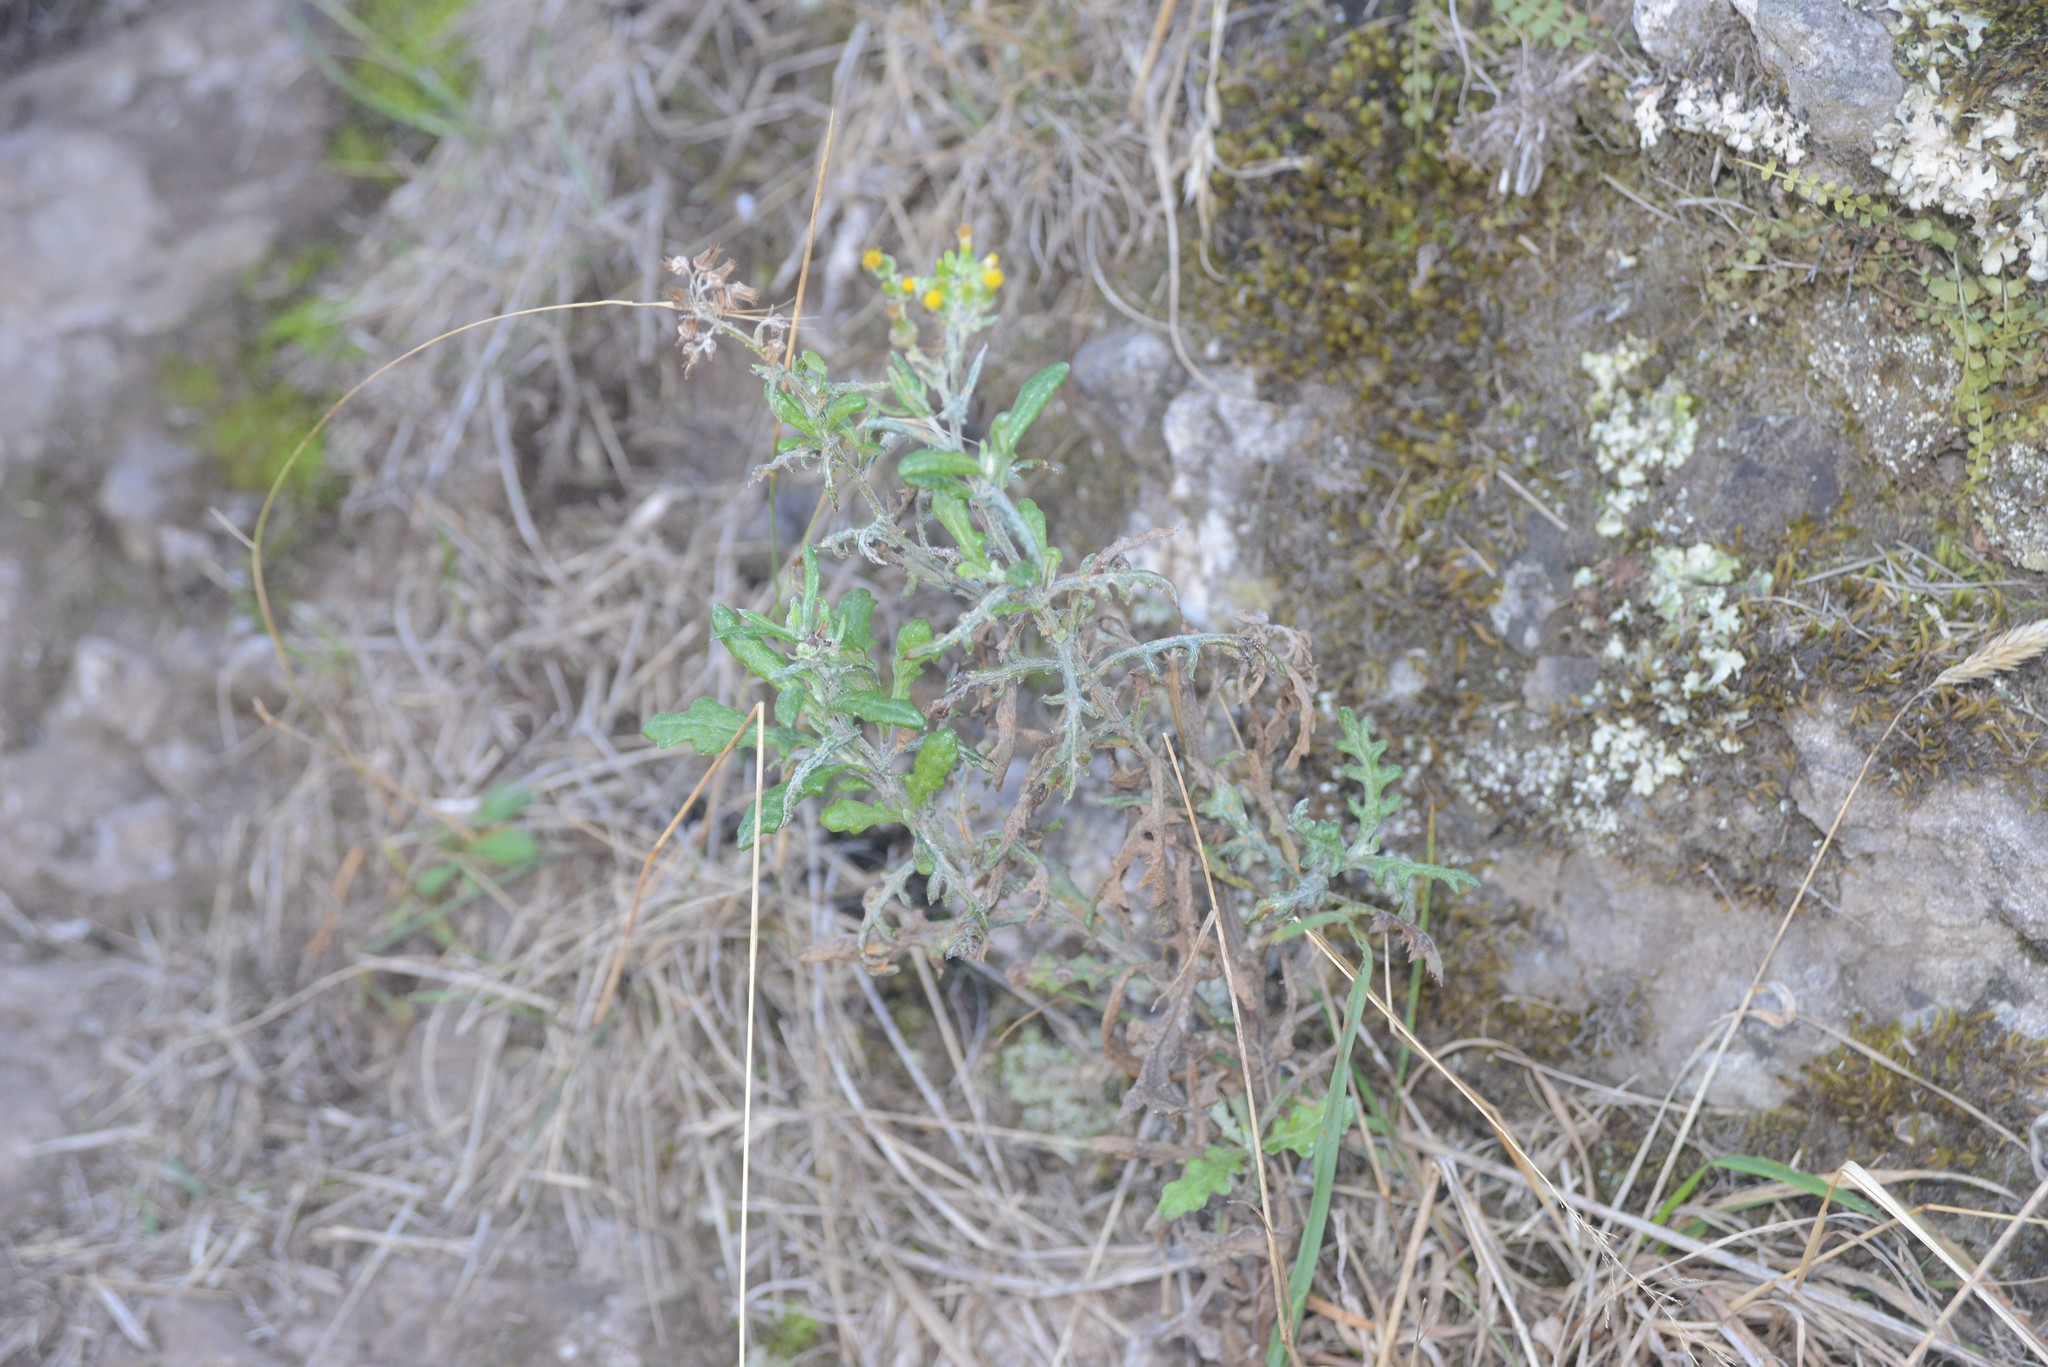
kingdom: Plantae
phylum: Tracheophyta
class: Magnoliopsida
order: Asterales
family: Asteraceae
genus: Senecio
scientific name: Senecio glomeratus
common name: Cutleaf burnweed
